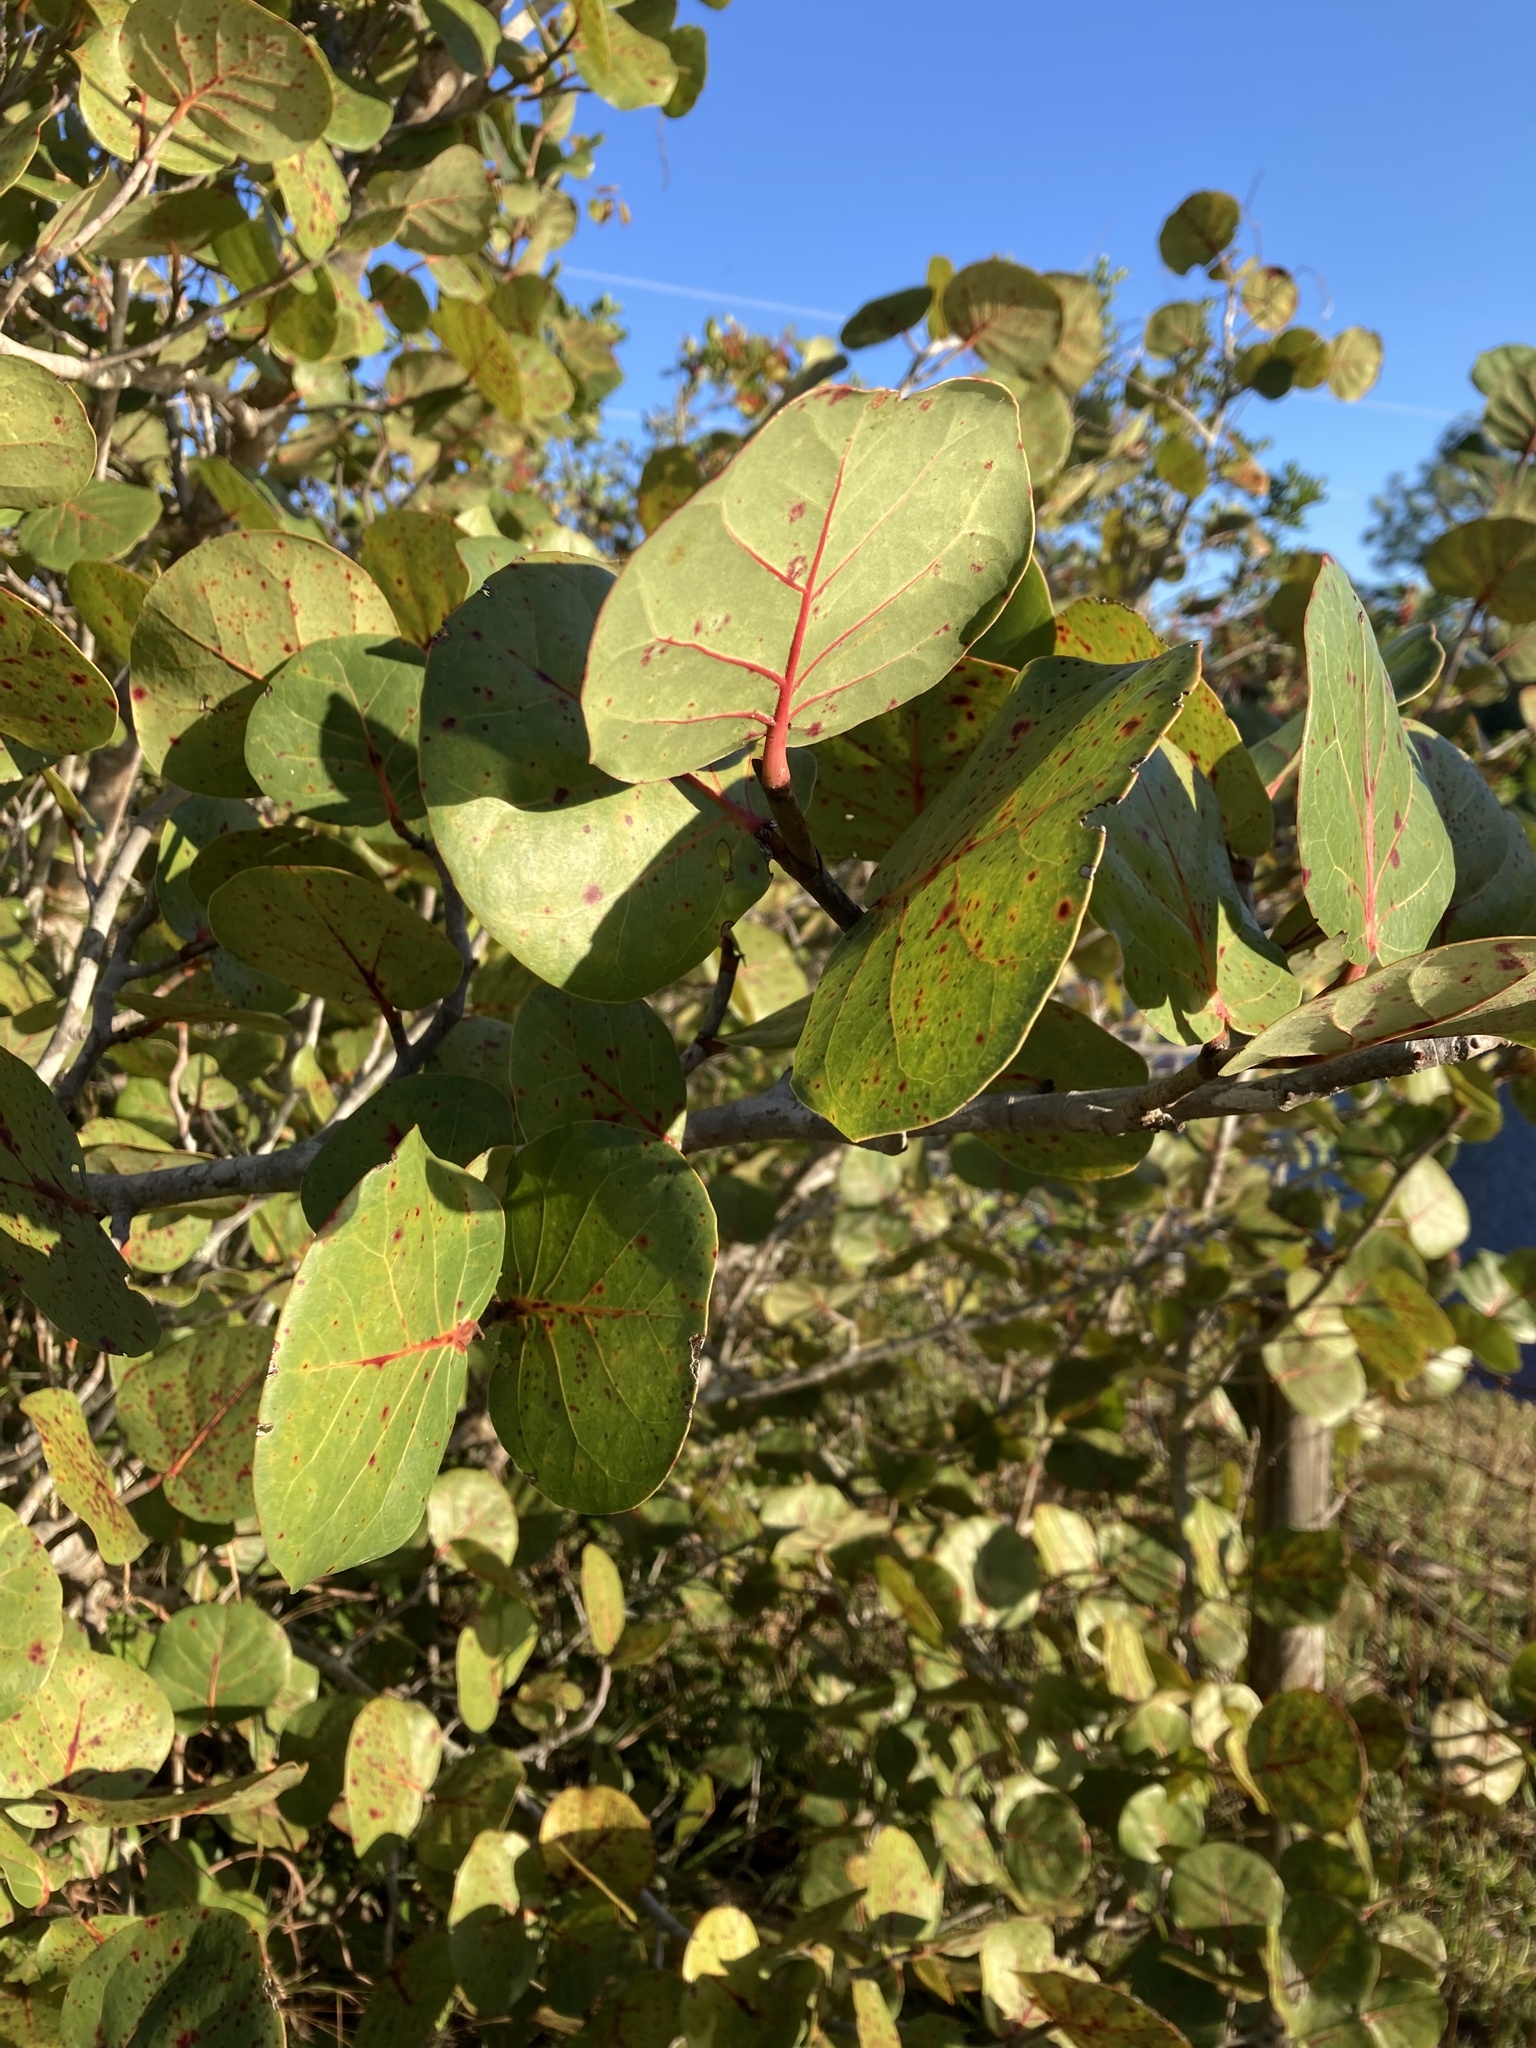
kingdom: Plantae
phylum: Tracheophyta
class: Magnoliopsida
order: Caryophyllales
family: Polygonaceae
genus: Coccoloba
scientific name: Coccoloba uvifera
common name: Seagrape
